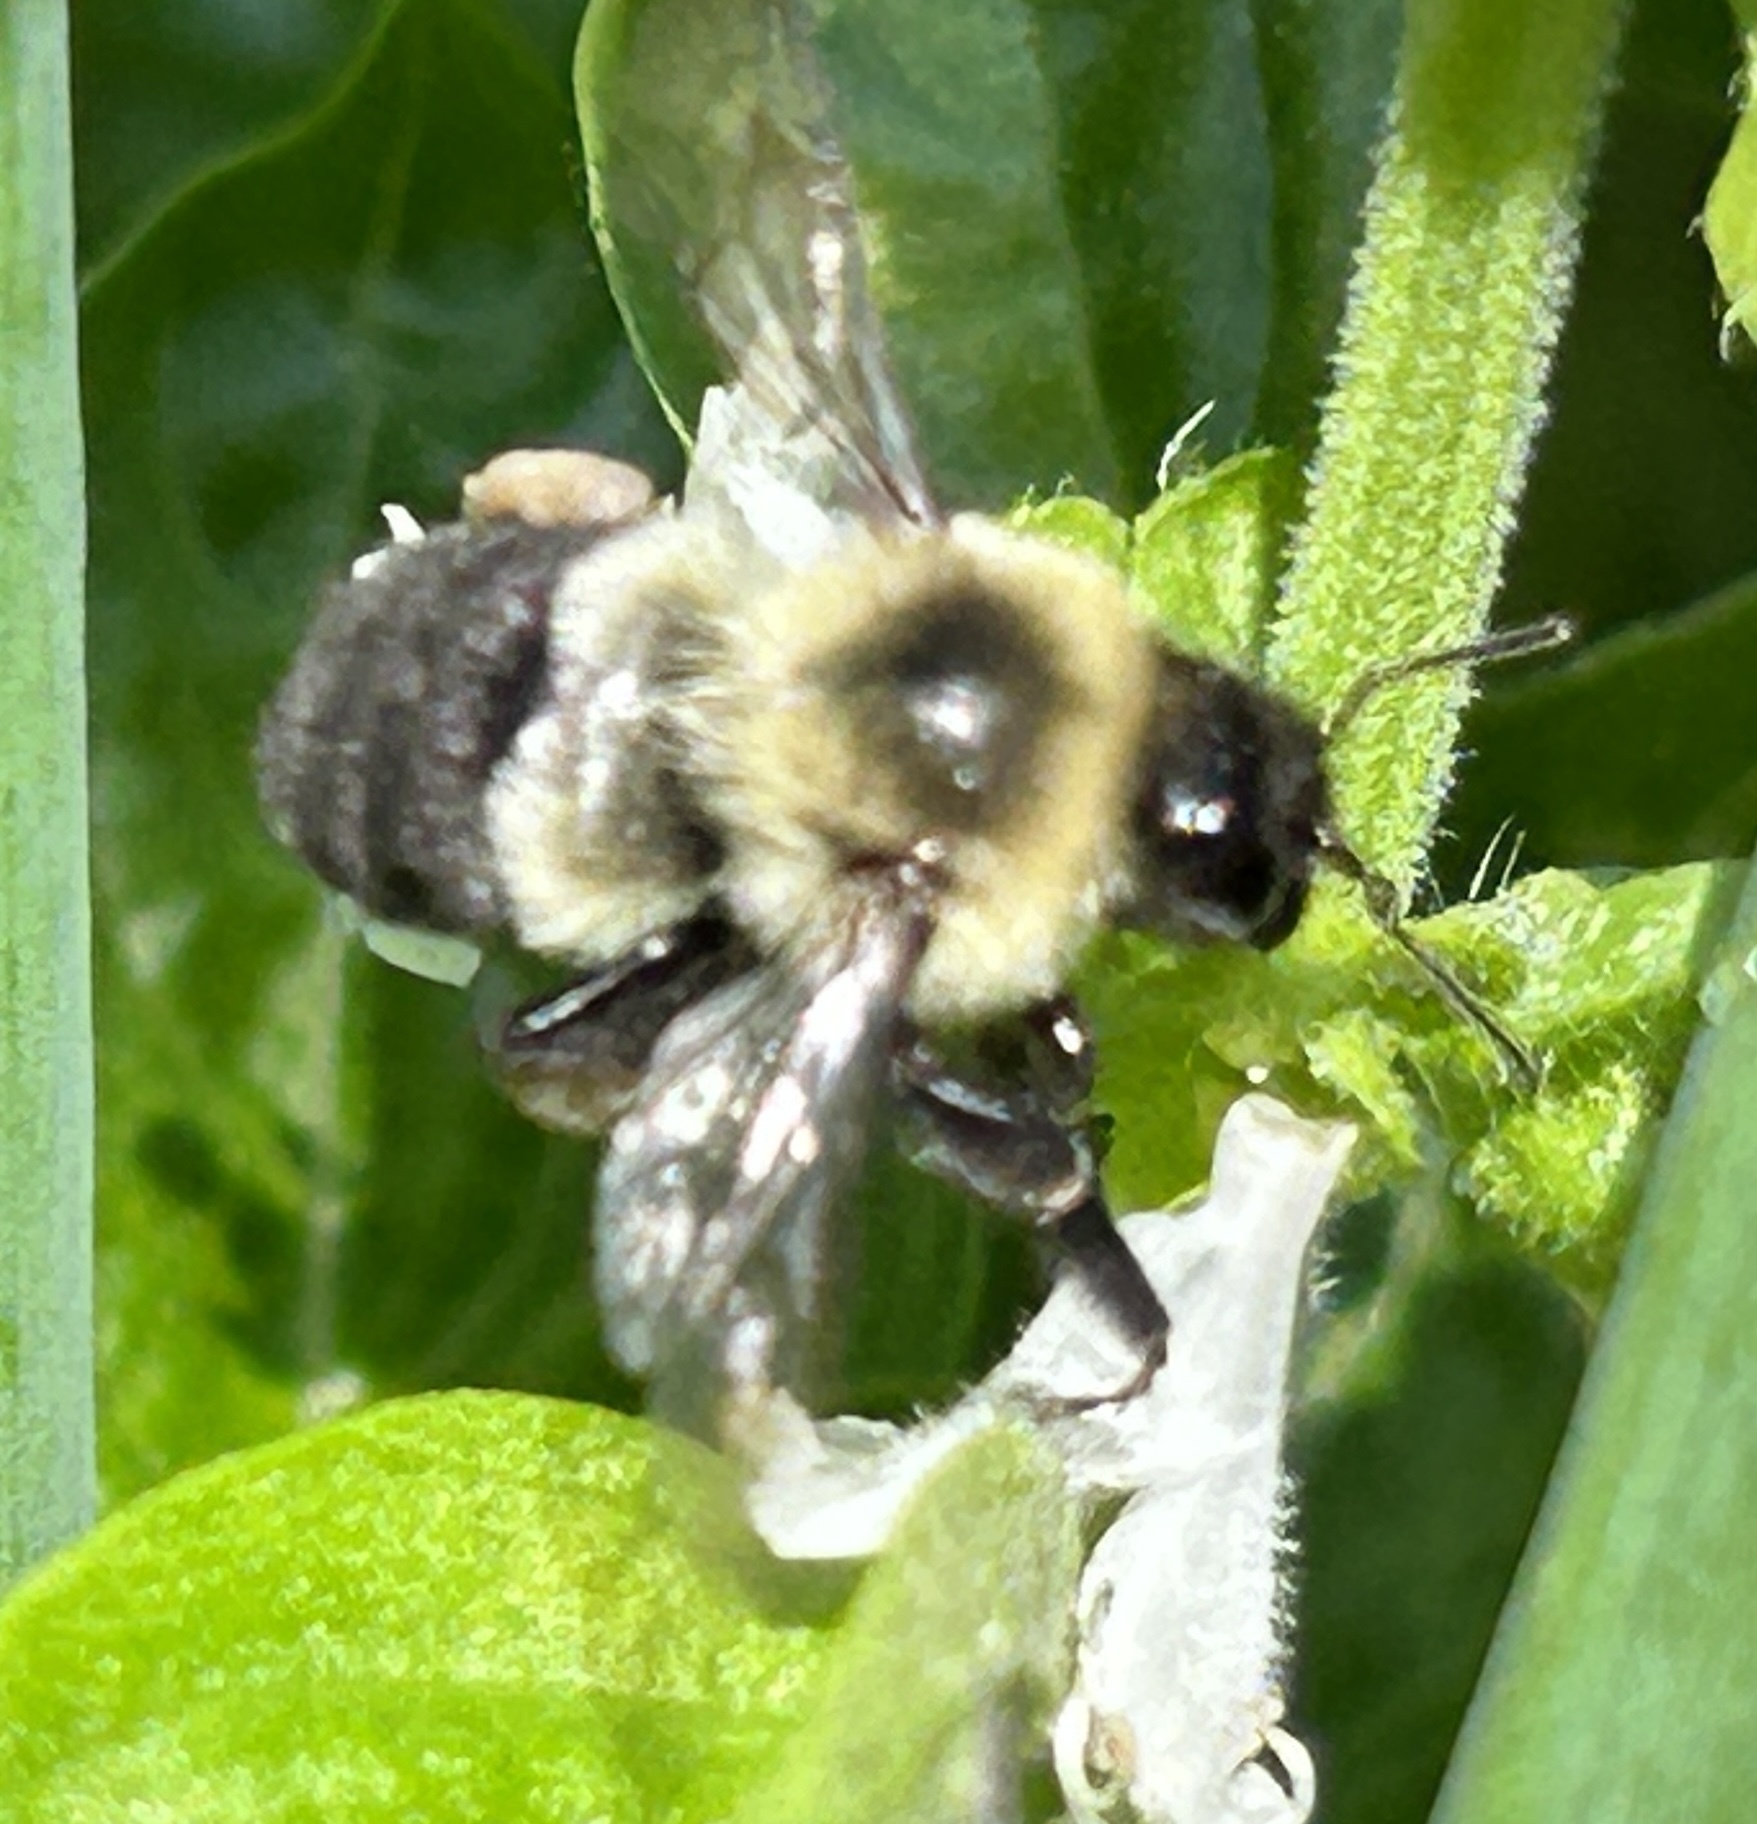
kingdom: Animalia
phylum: Arthropoda
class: Insecta
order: Hymenoptera
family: Apidae
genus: Bombus
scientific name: Bombus impatiens
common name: Common eastern bumble bee
